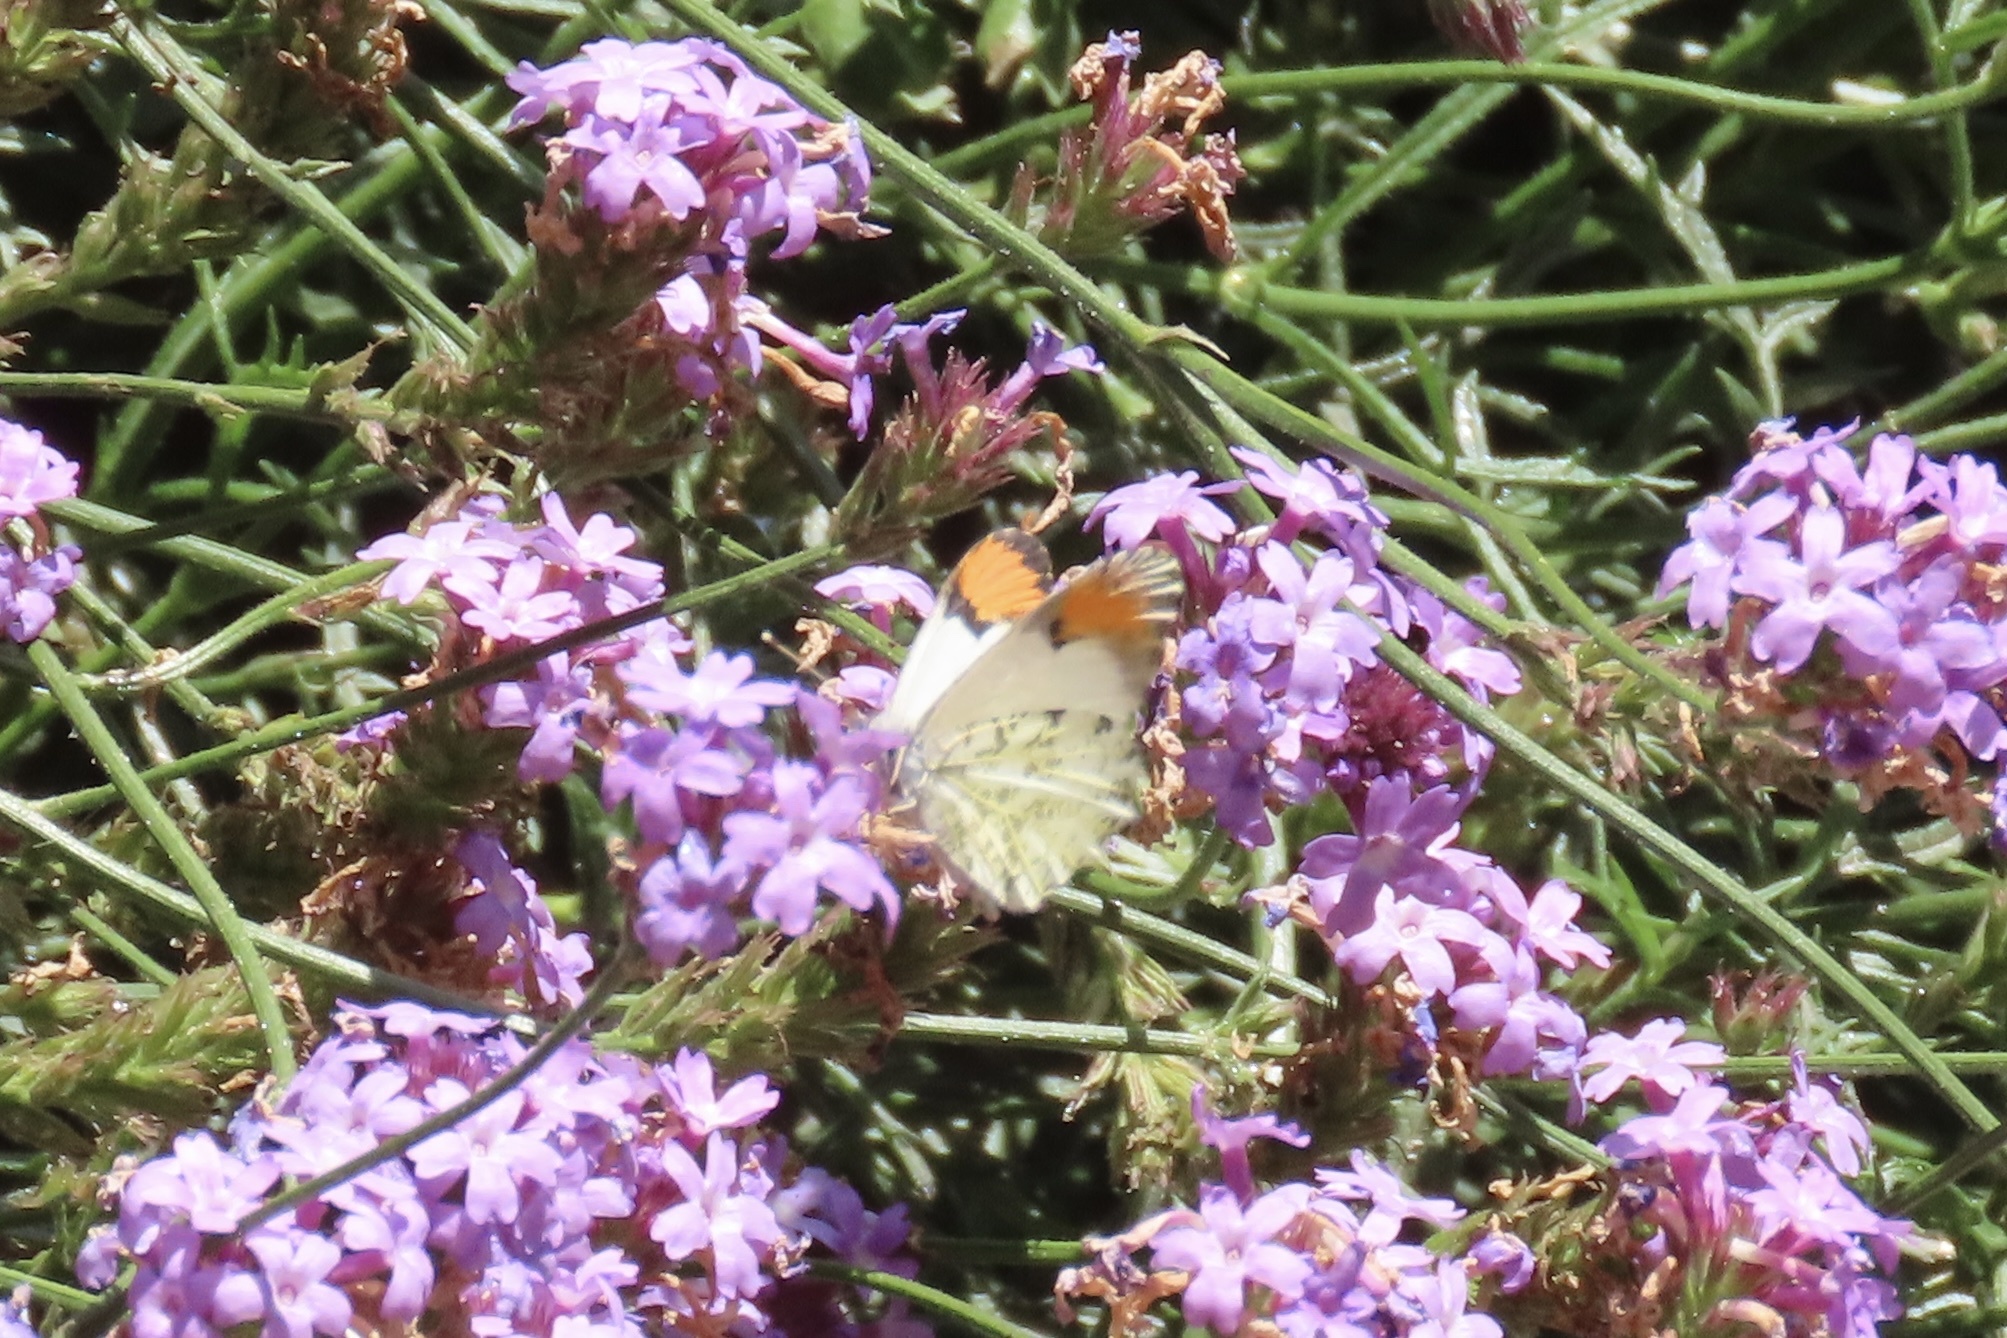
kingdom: Animalia
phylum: Arthropoda
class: Insecta
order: Lepidoptera
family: Pieridae
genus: Anthocharis
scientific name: Anthocharis sara
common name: Sara's orangetip
